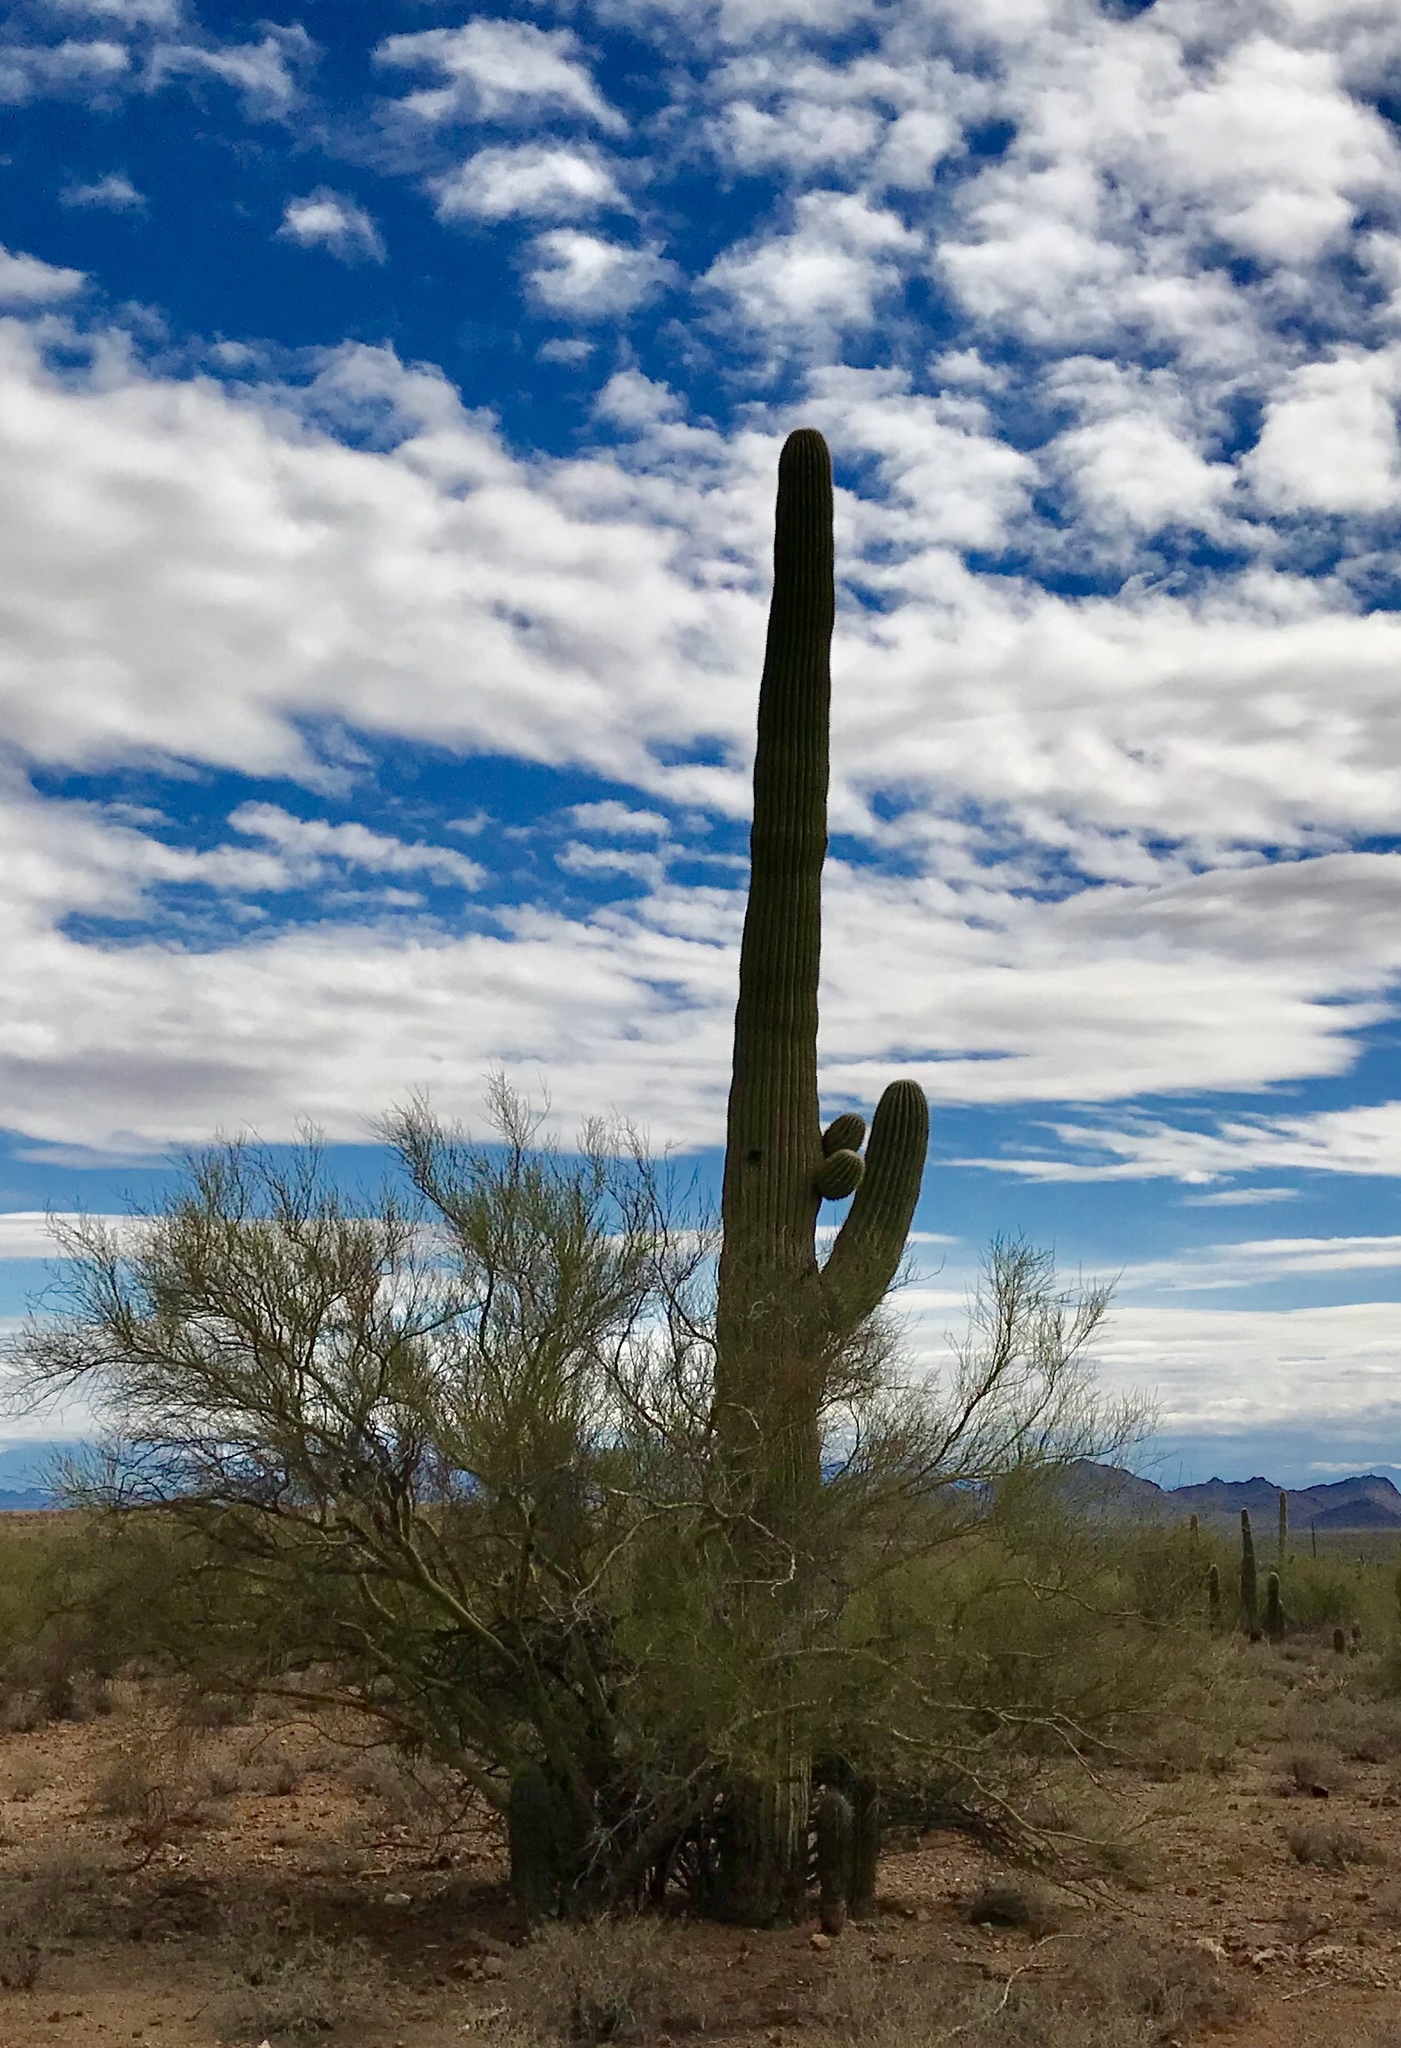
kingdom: Plantae
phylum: Tracheophyta
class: Magnoliopsida
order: Caryophyllales
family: Cactaceae
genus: Carnegiea
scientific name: Carnegiea gigantea
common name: Saguaro
